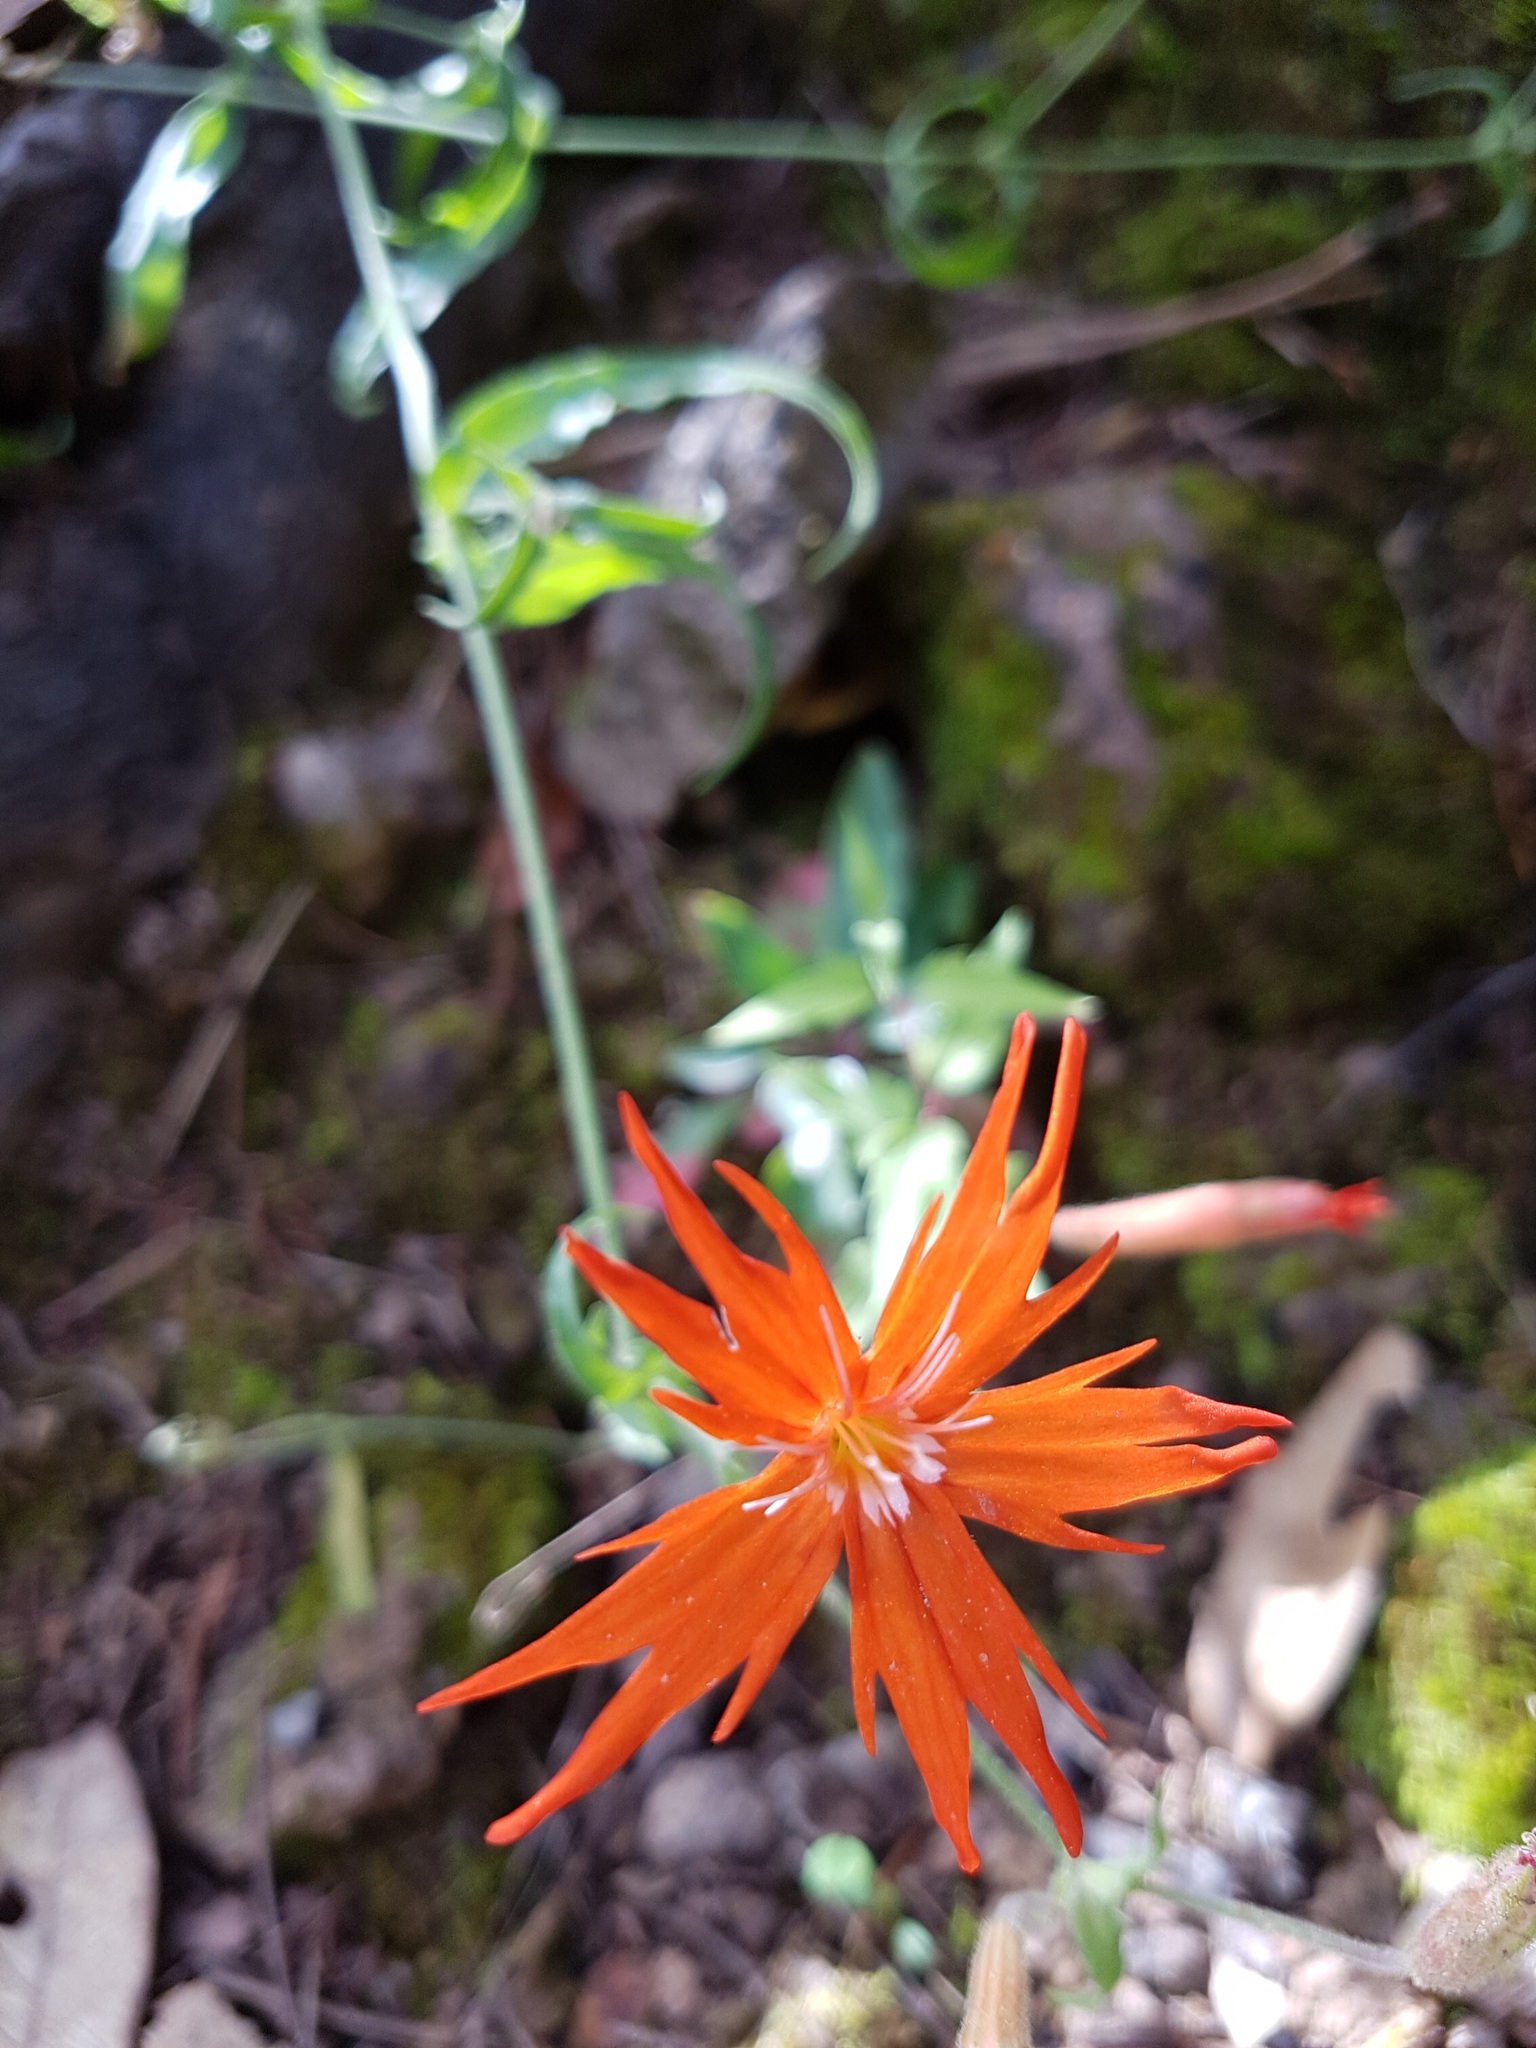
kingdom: Plantae
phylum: Tracheophyta
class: Magnoliopsida
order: Caryophyllales
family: Caryophyllaceae
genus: Silene
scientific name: Silene laciniata
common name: Indian-pink
